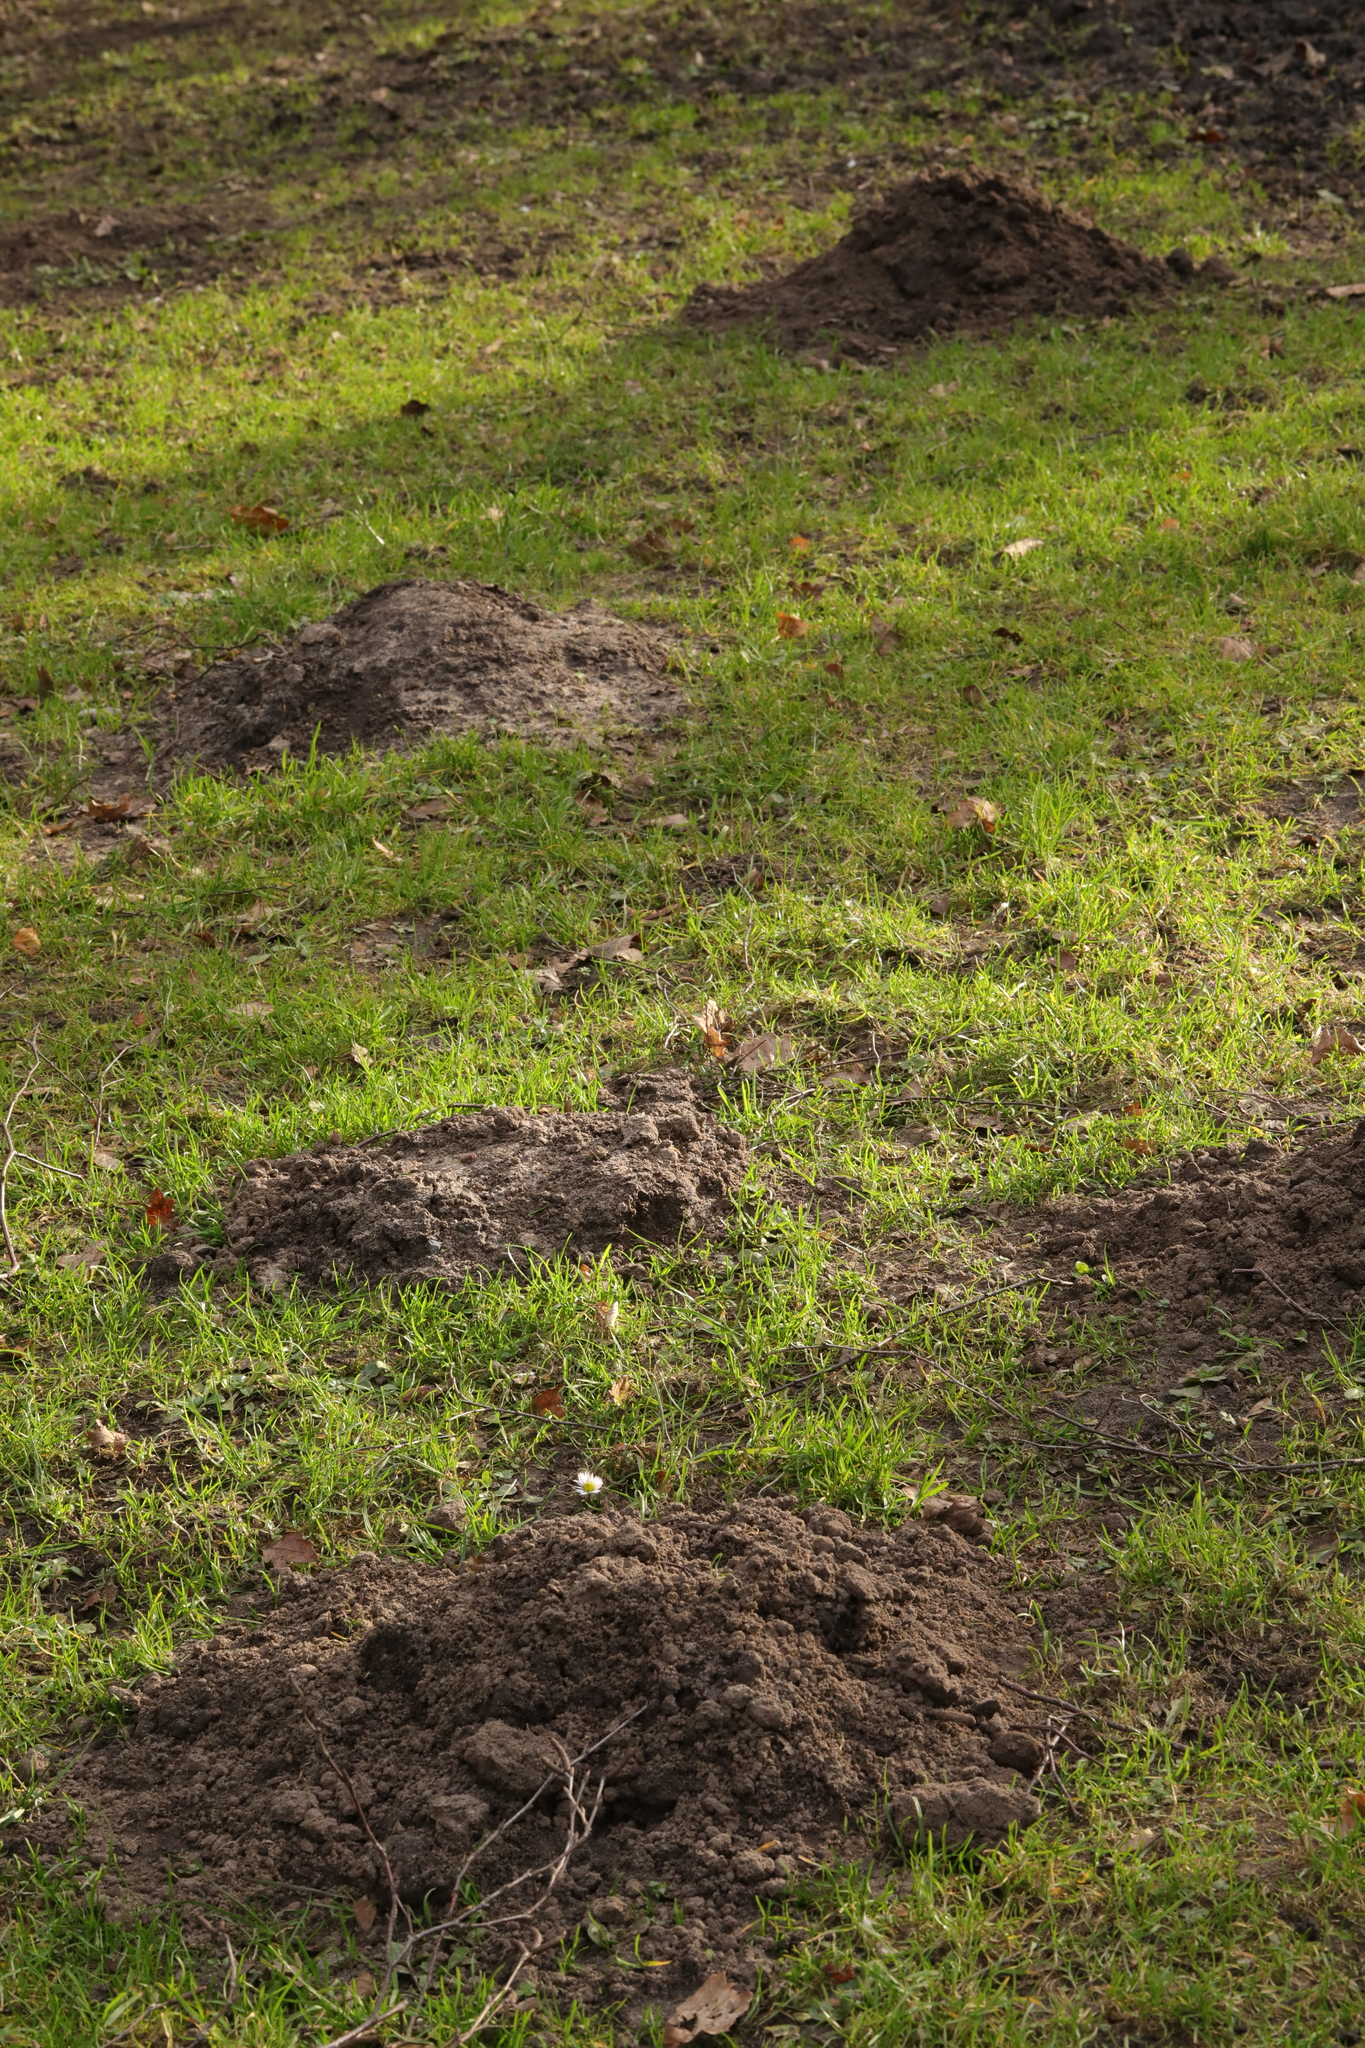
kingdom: Animalia
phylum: Chordata
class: Mammalia
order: Soricomorpha
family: Talpidae
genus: Talpa
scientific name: Talpa europaea
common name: European mole
